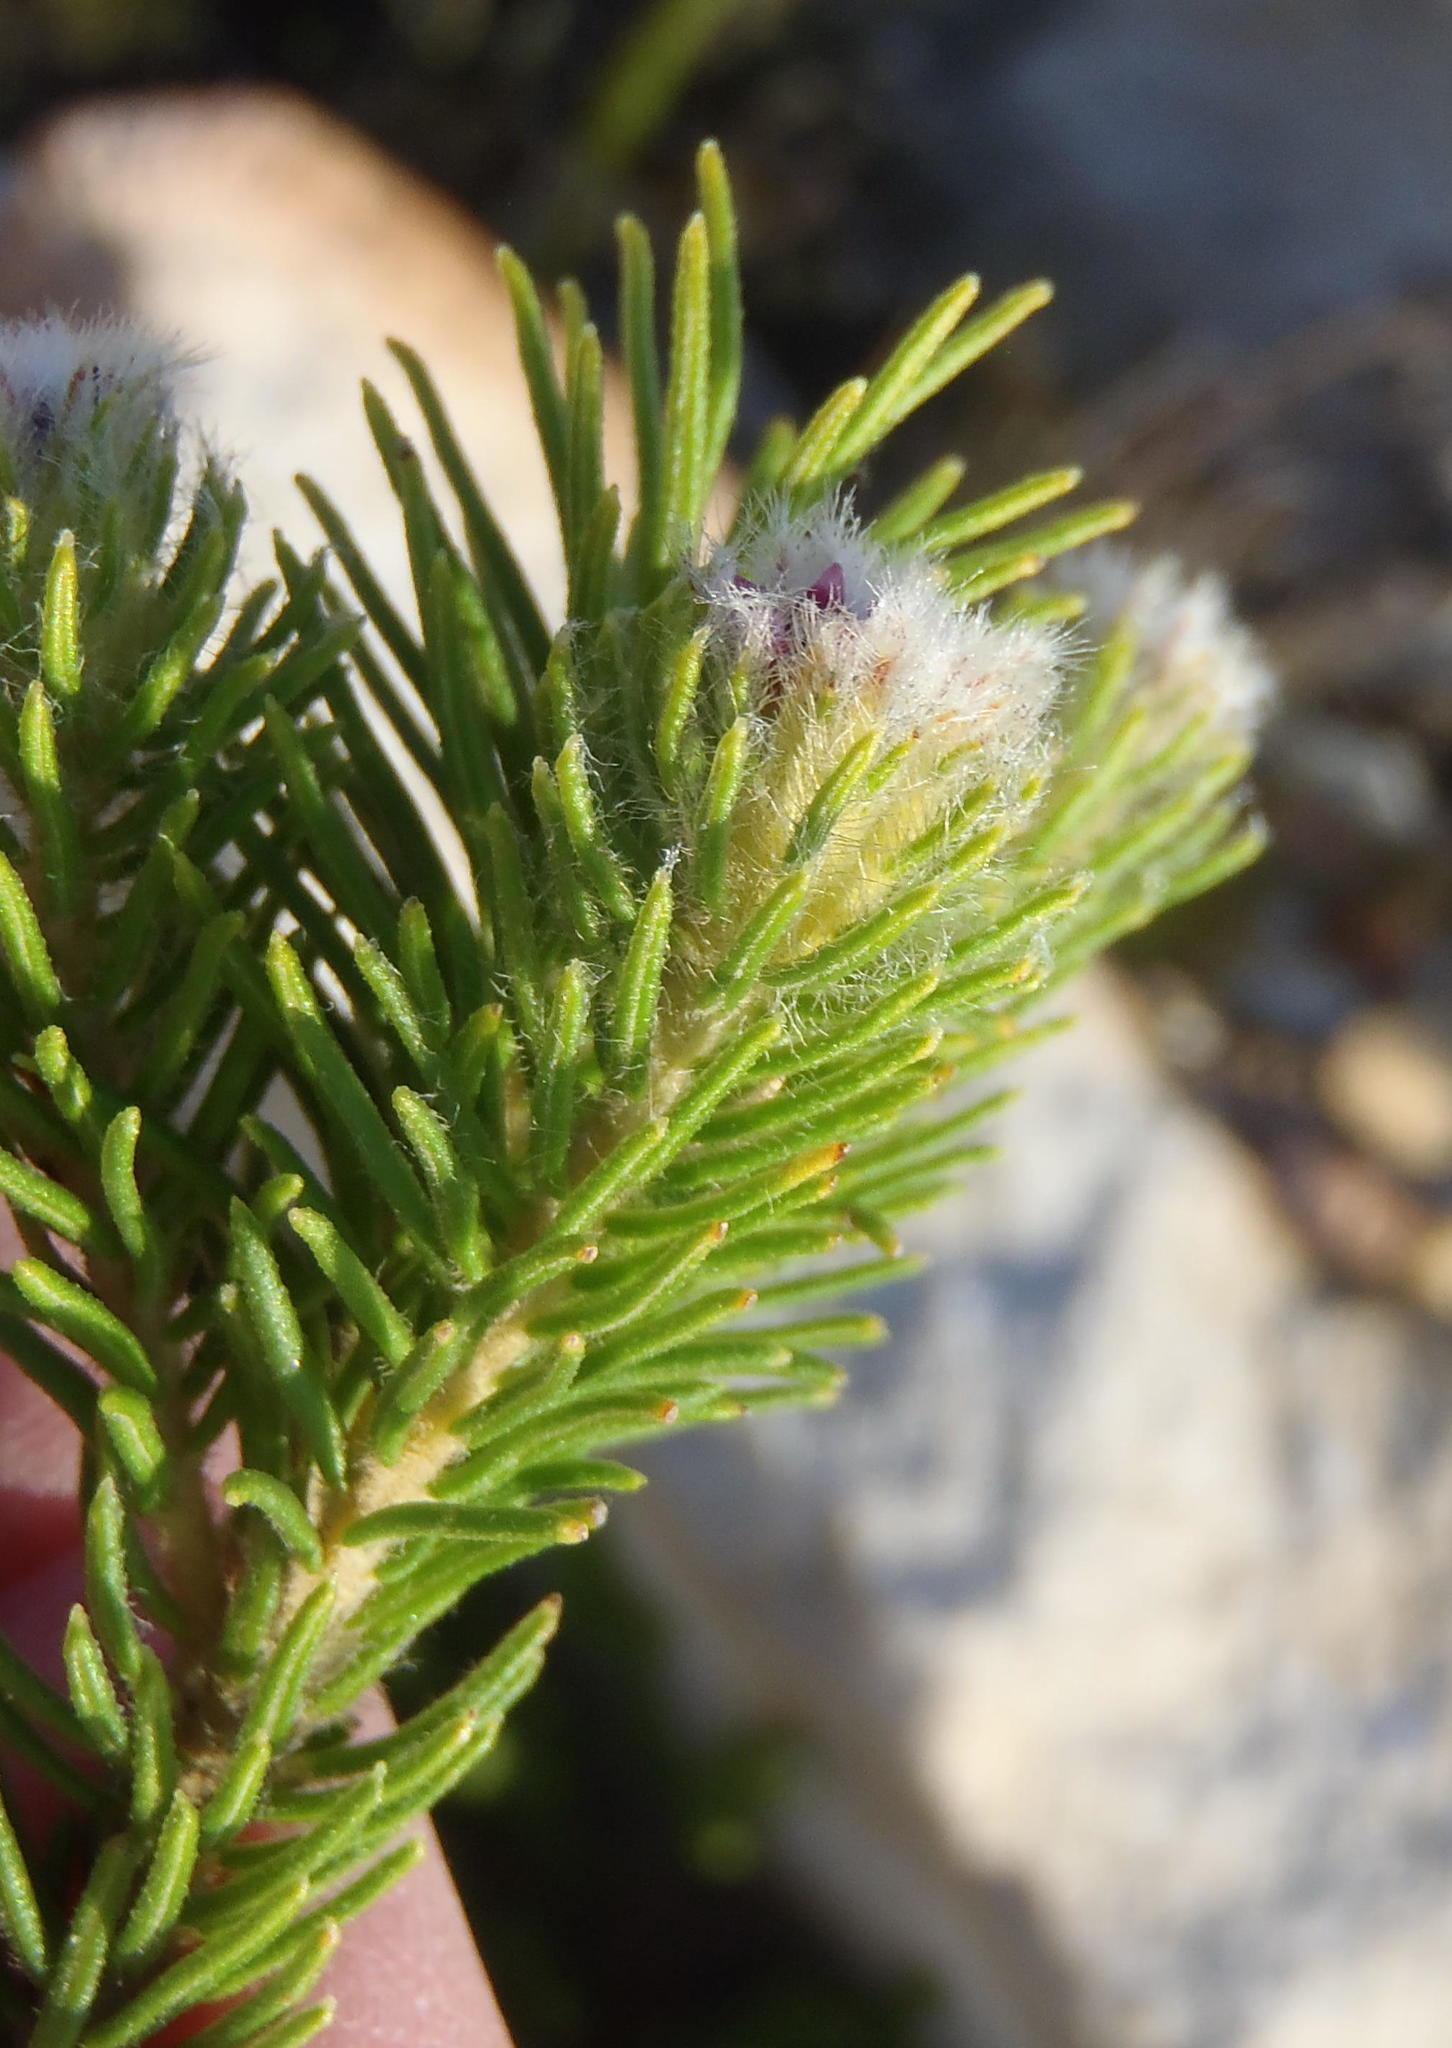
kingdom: Plantae
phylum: Tracheophyta
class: Magnoliopsida
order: Rosales
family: Rhamnaceae
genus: Phylica
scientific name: Phylica nigromontana
